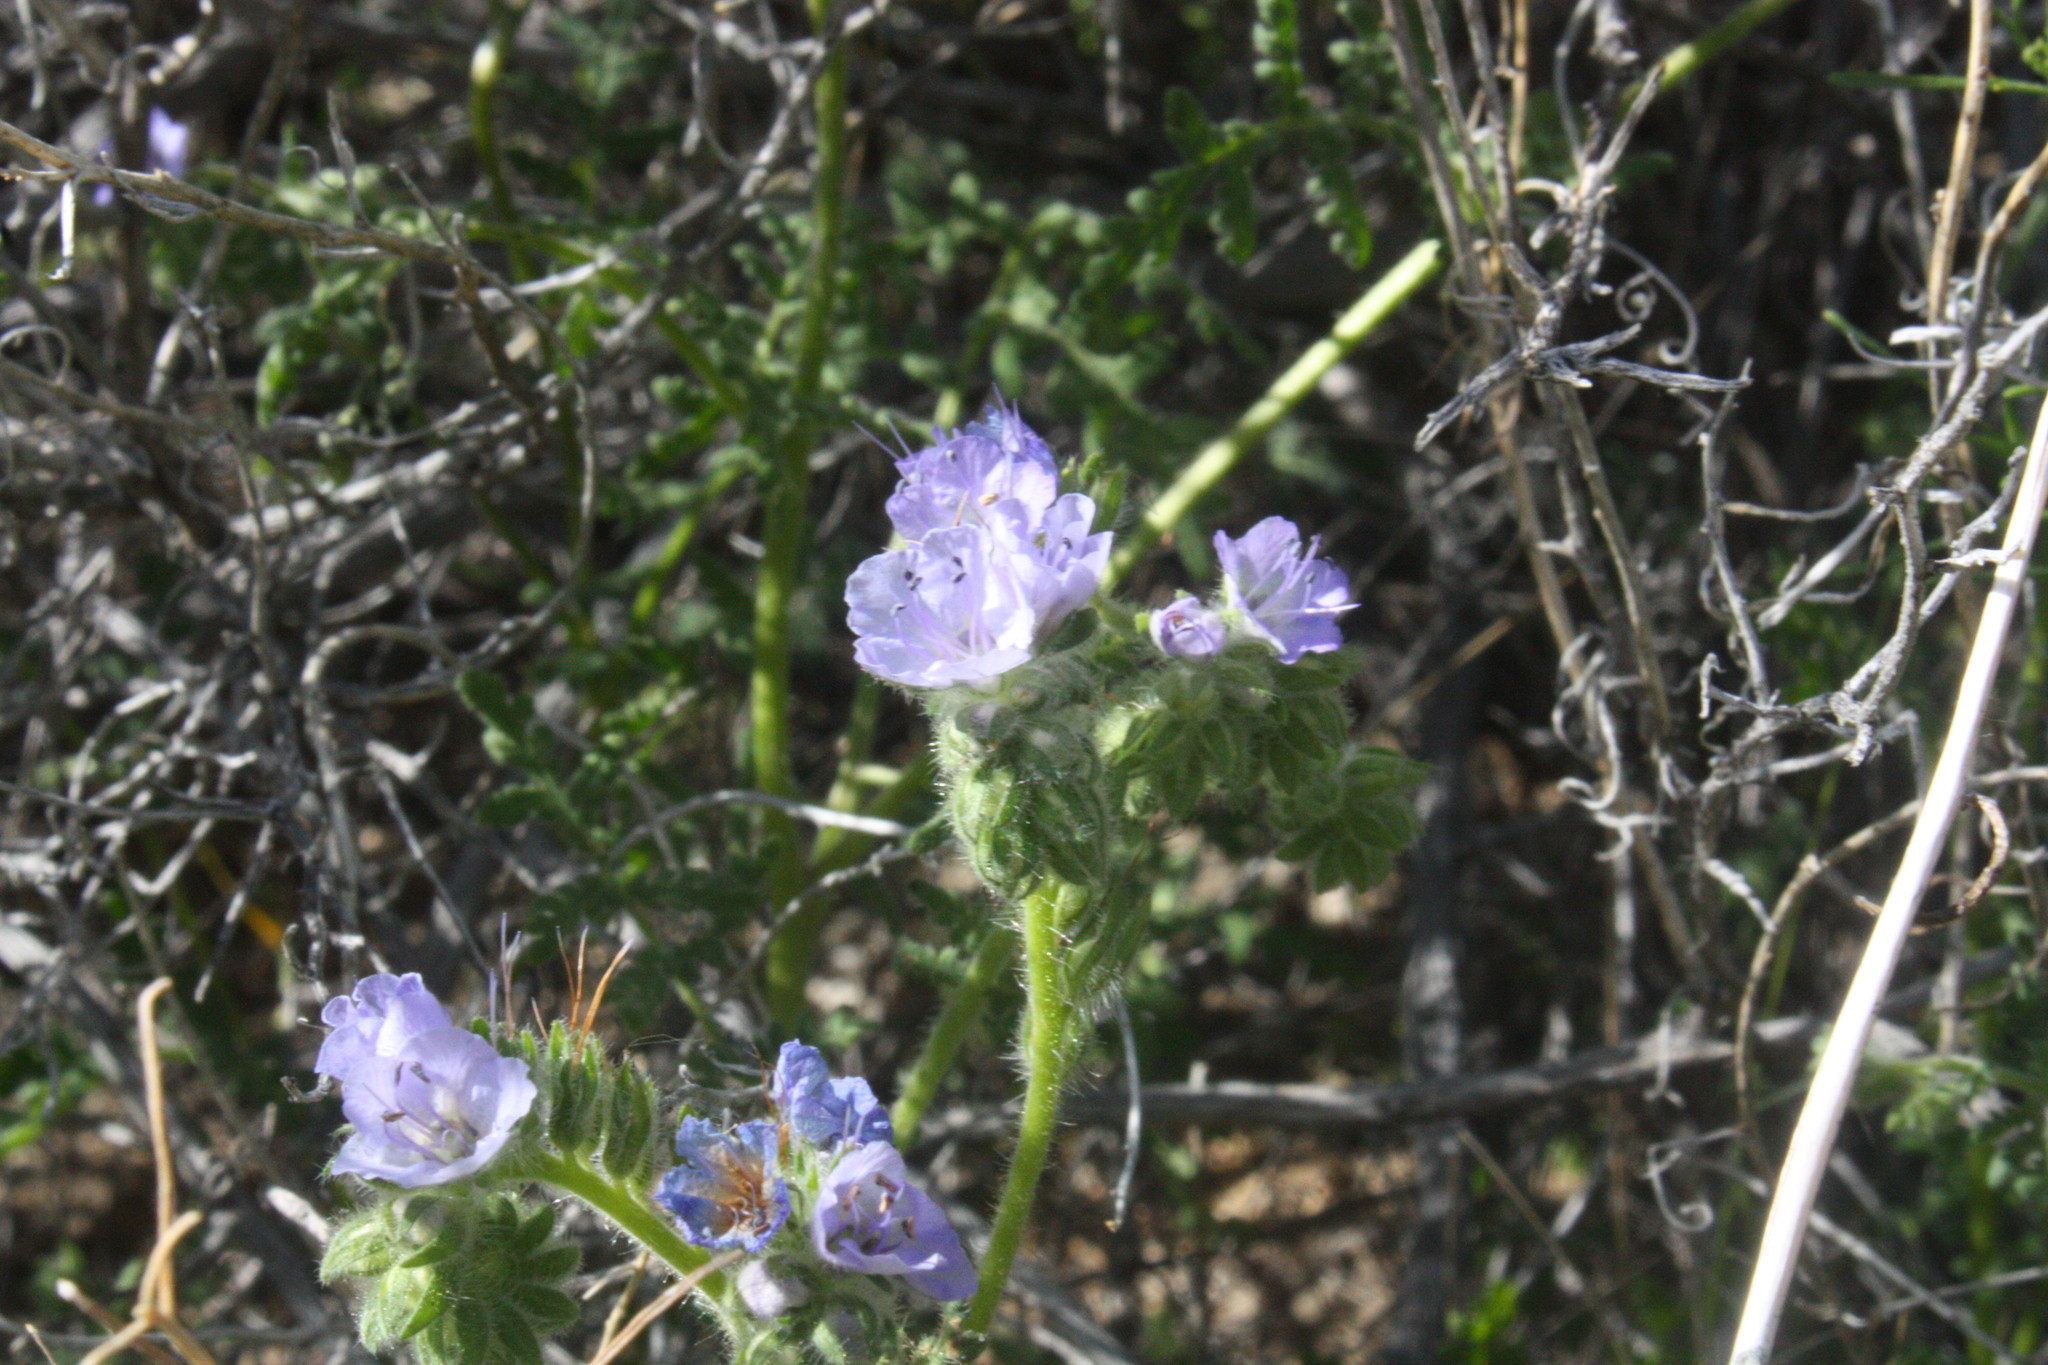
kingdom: Plantae
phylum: Tracheophyta
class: Magnoliopsida
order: Boraginales
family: Hydrophyllaceae
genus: Phacelia
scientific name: Phacelia distans
